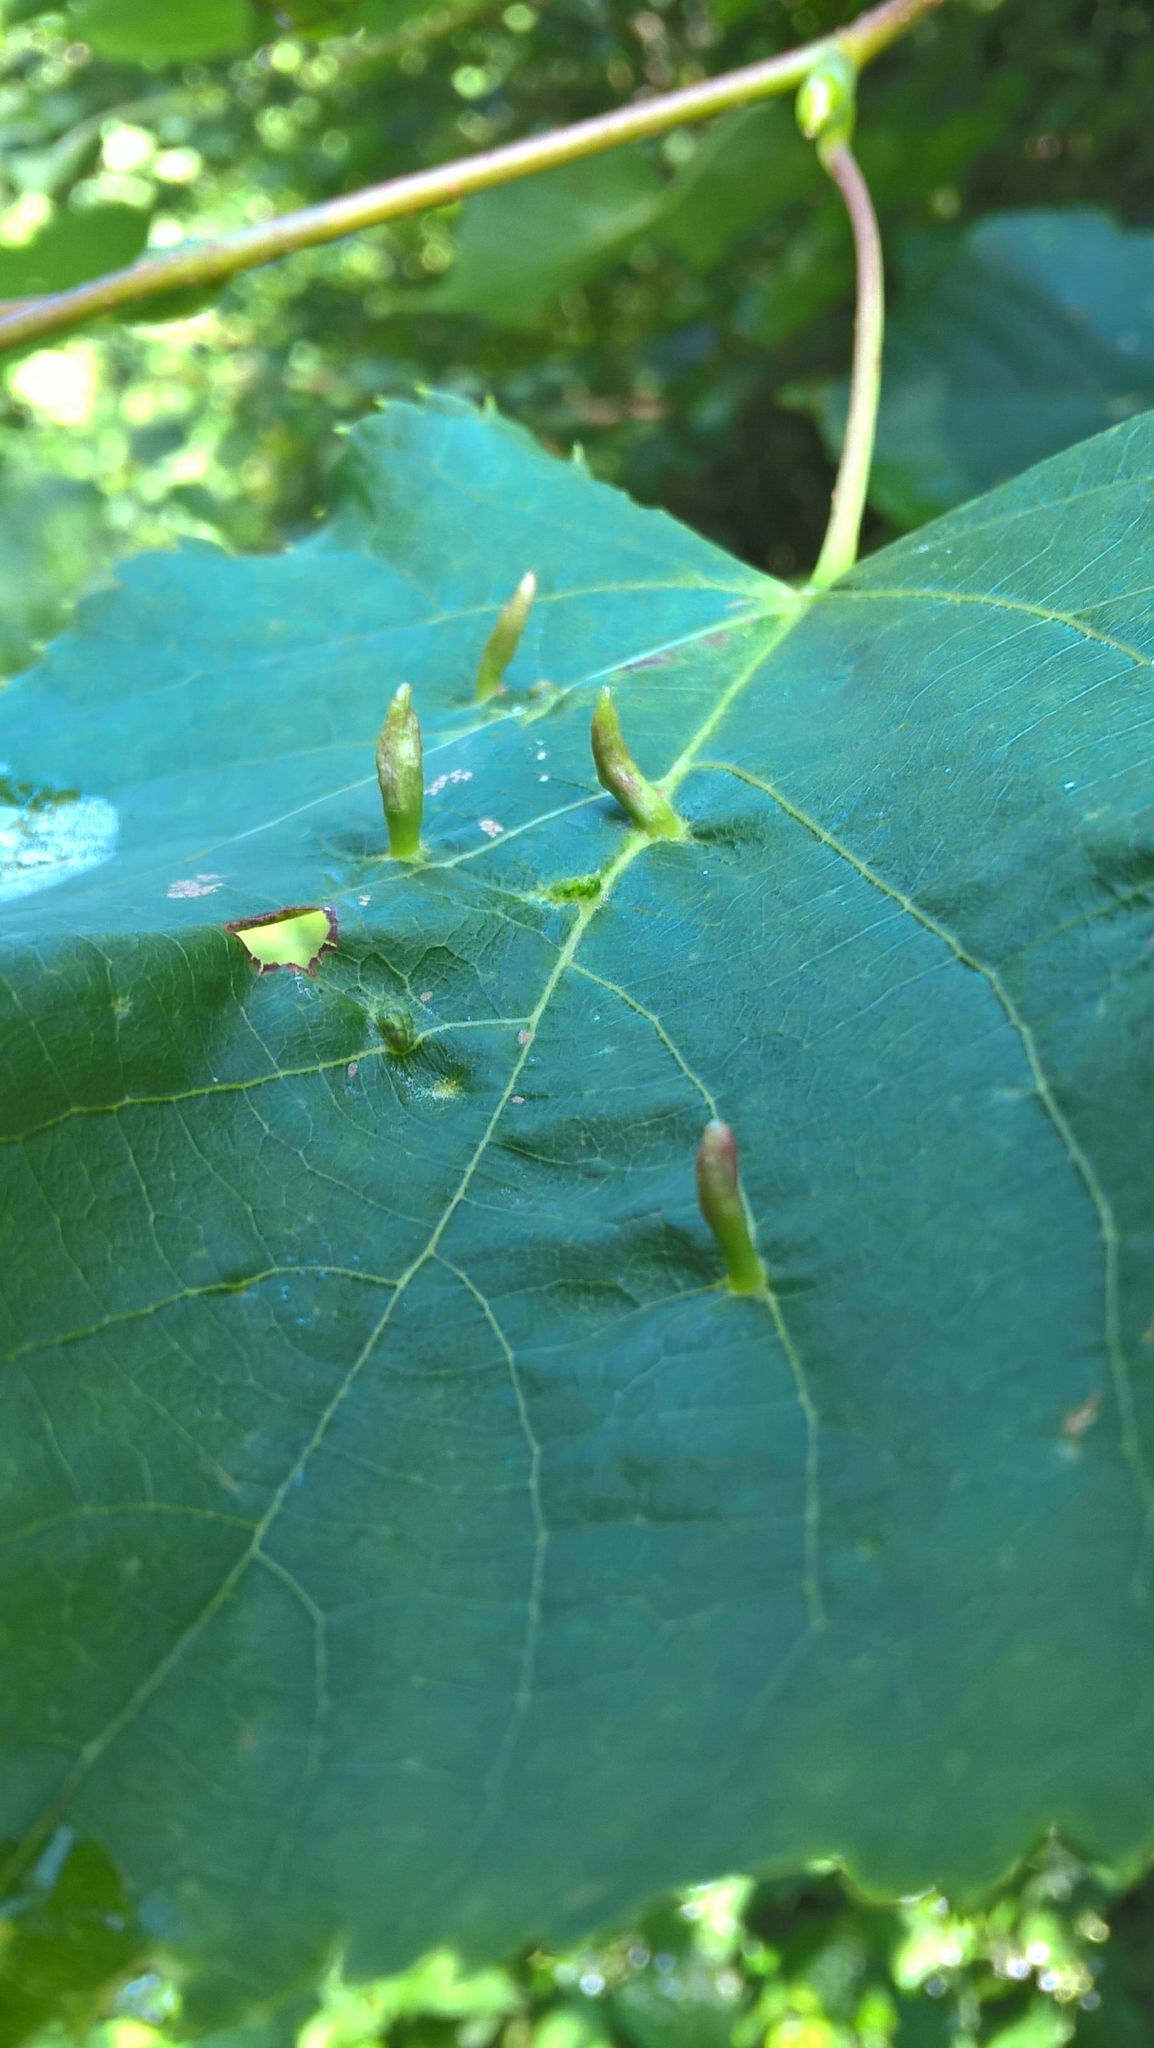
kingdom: Animalia
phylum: Arthropoda
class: Arachnida
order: Trombidiformes
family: Eriophyidae
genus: Eriophyes
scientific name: Eriophyes tiliae
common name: Red nail gall mite
